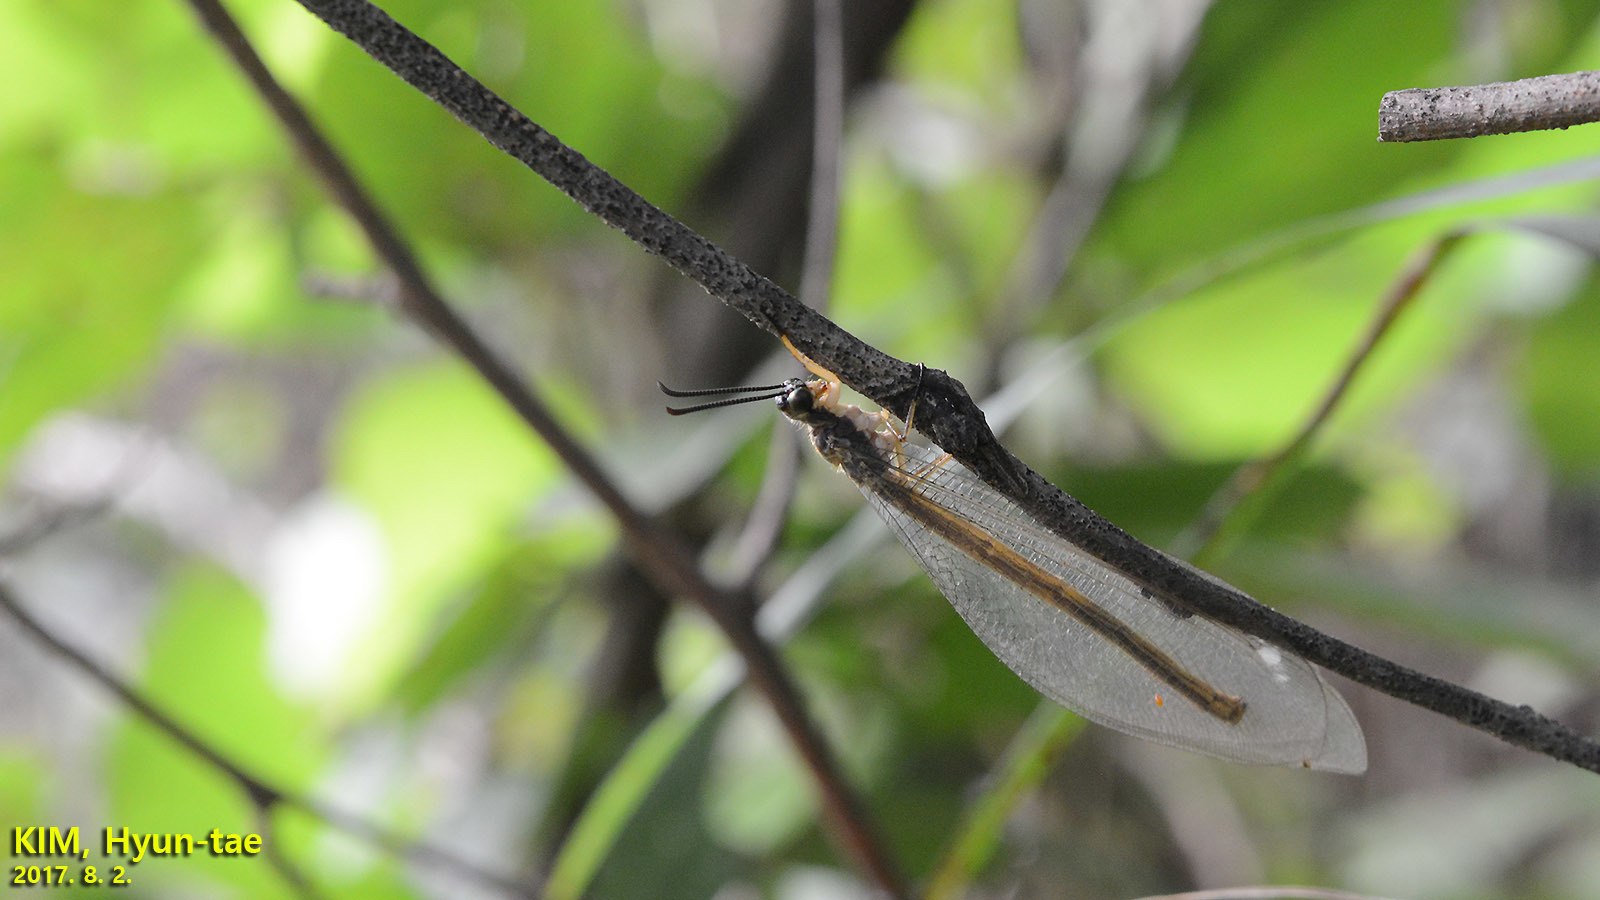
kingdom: Animalia
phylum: Arthropoda
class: Insecta
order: Neuroptera
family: Myrmeleontidae
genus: Hagenomyia
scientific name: Hagenomyia micans
